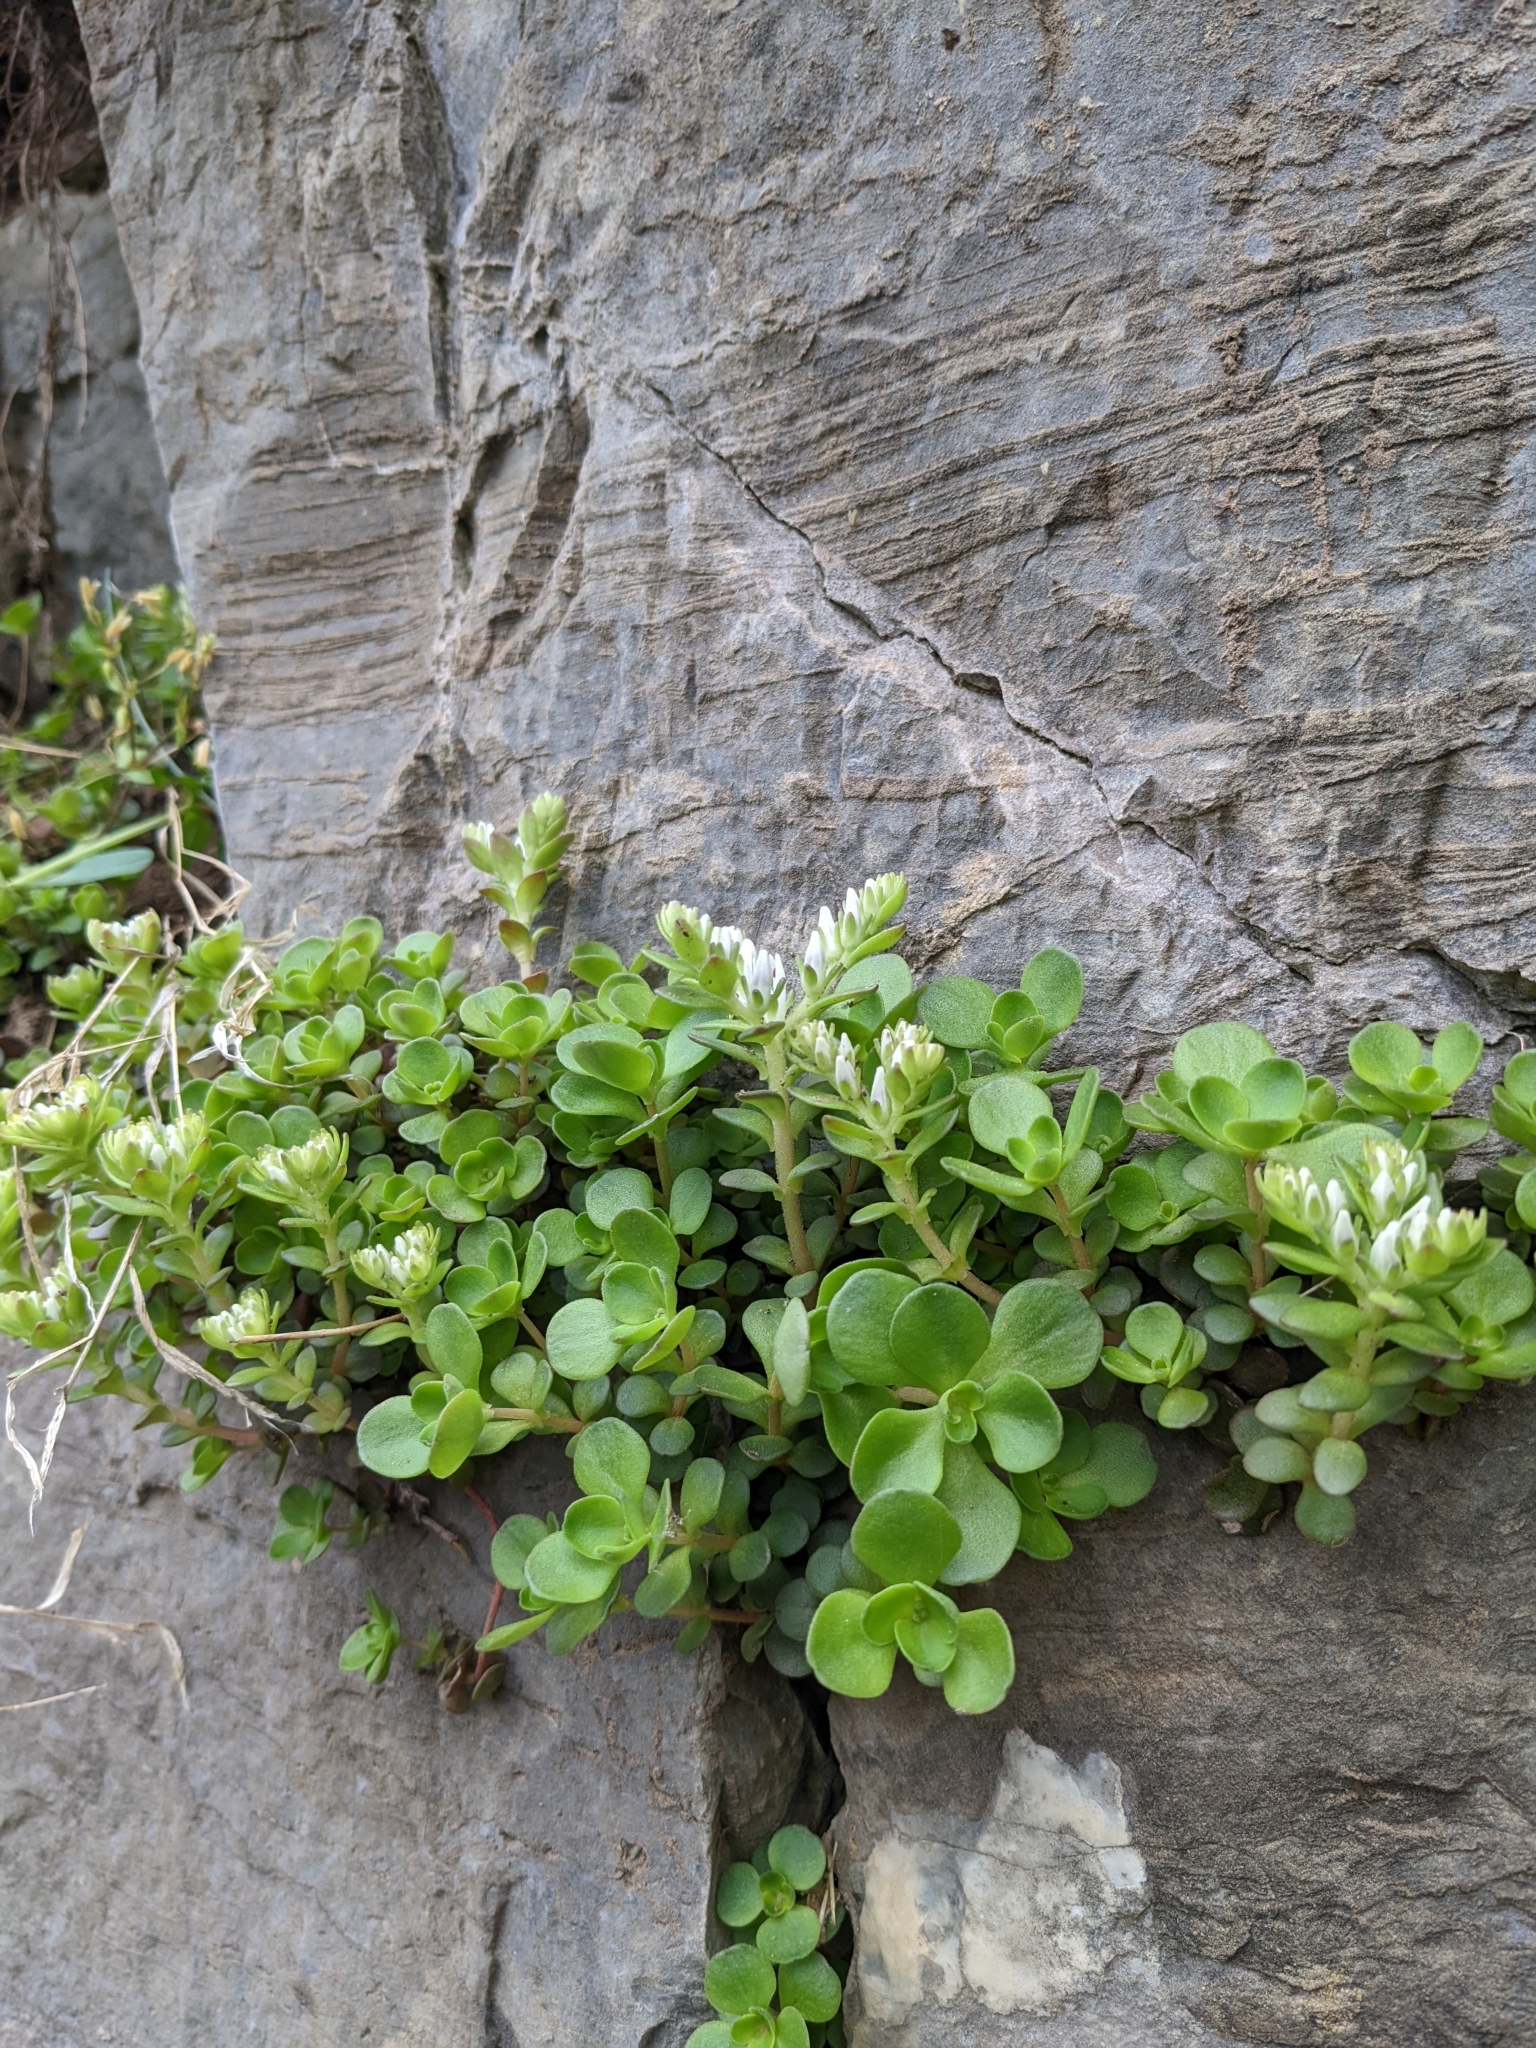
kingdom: Plantae
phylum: Tracheophyta
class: Magnoliopsida
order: Saxifragales
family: Crassulaceae
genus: Sedum
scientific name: Sedum ternatum
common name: Wild stonecrop
